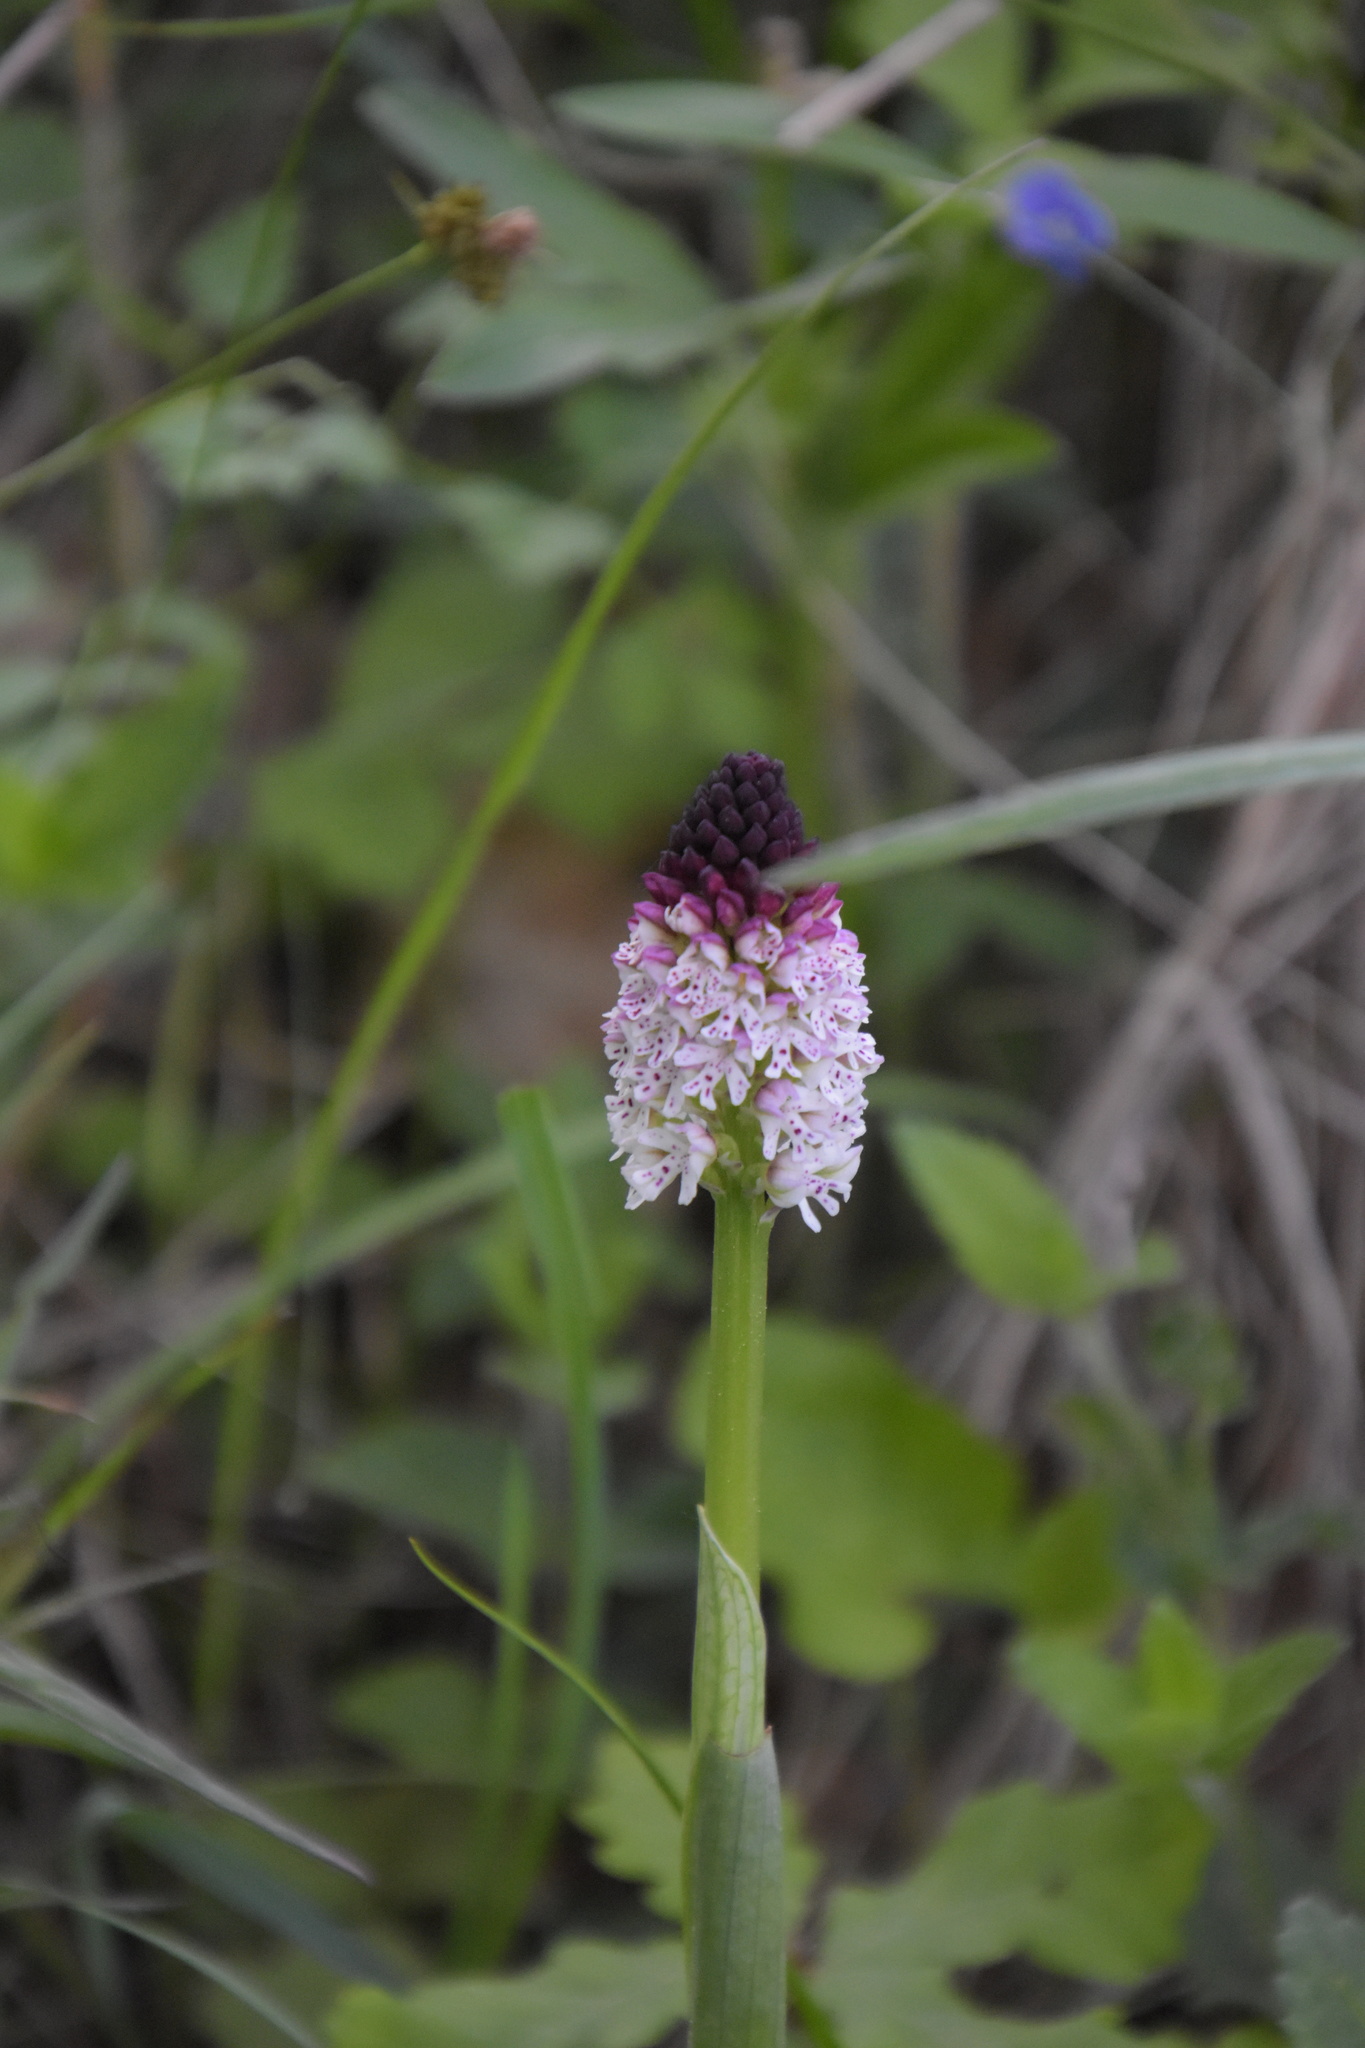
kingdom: Plantae
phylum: Tracheophyta
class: Liliopsida
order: Asparagales
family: Orchidaceae
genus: Neotinea
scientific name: Neotinea ustulata
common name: Burnt orchid
